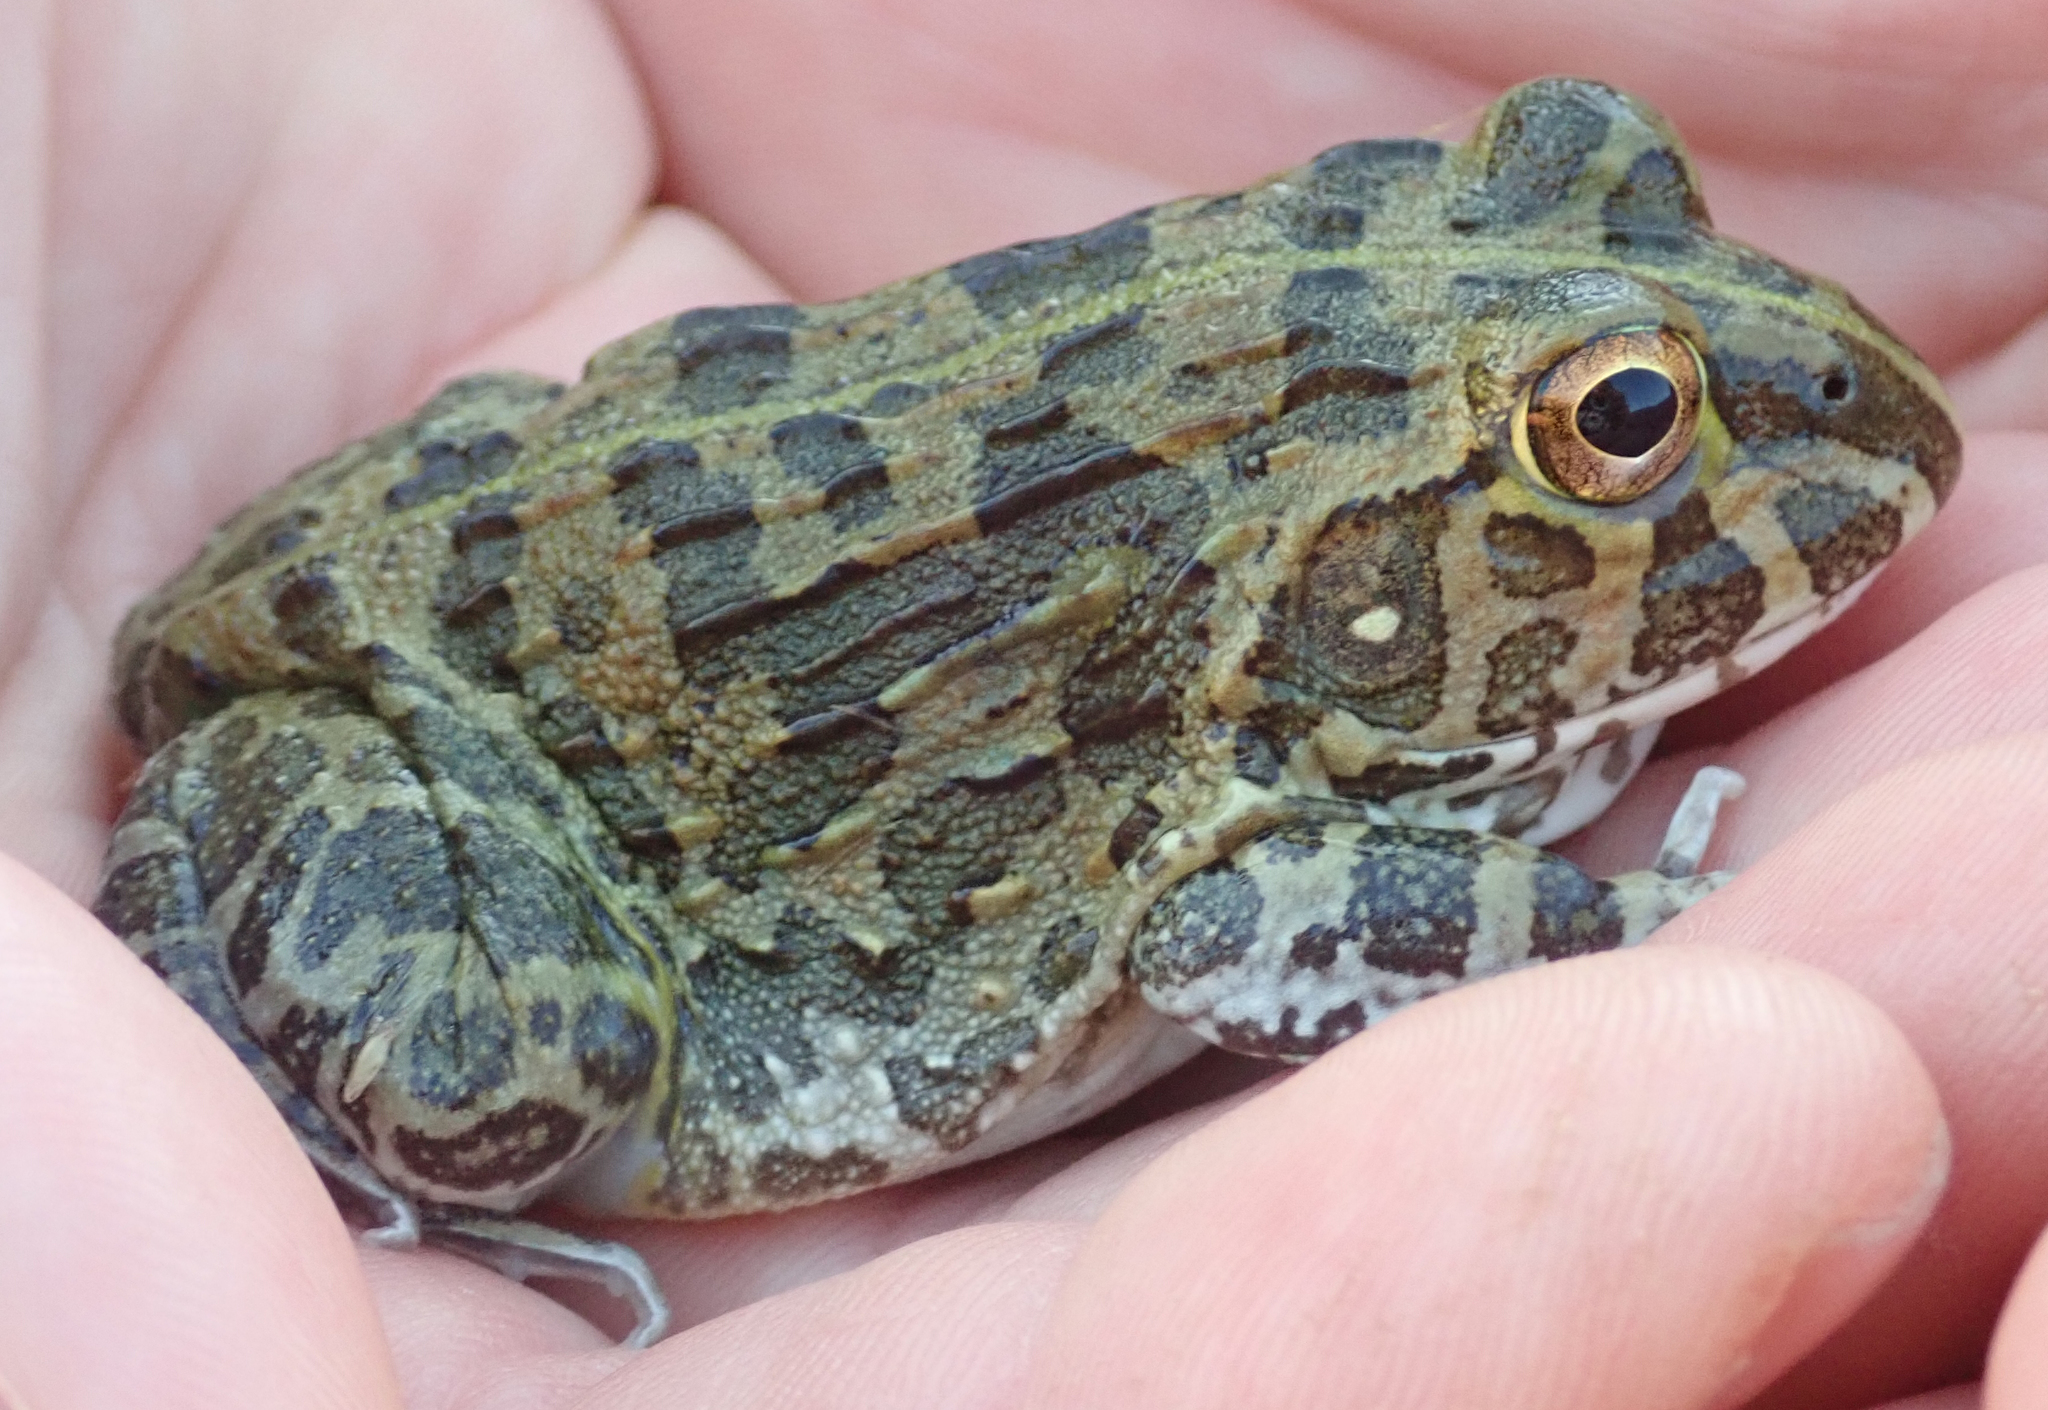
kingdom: Animalia
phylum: Chordata
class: Amphibia
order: Anura
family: Pyxicephalidae
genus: Pyxicephalus
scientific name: Pyxicephalus edulis
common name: Peter's bullfrog
